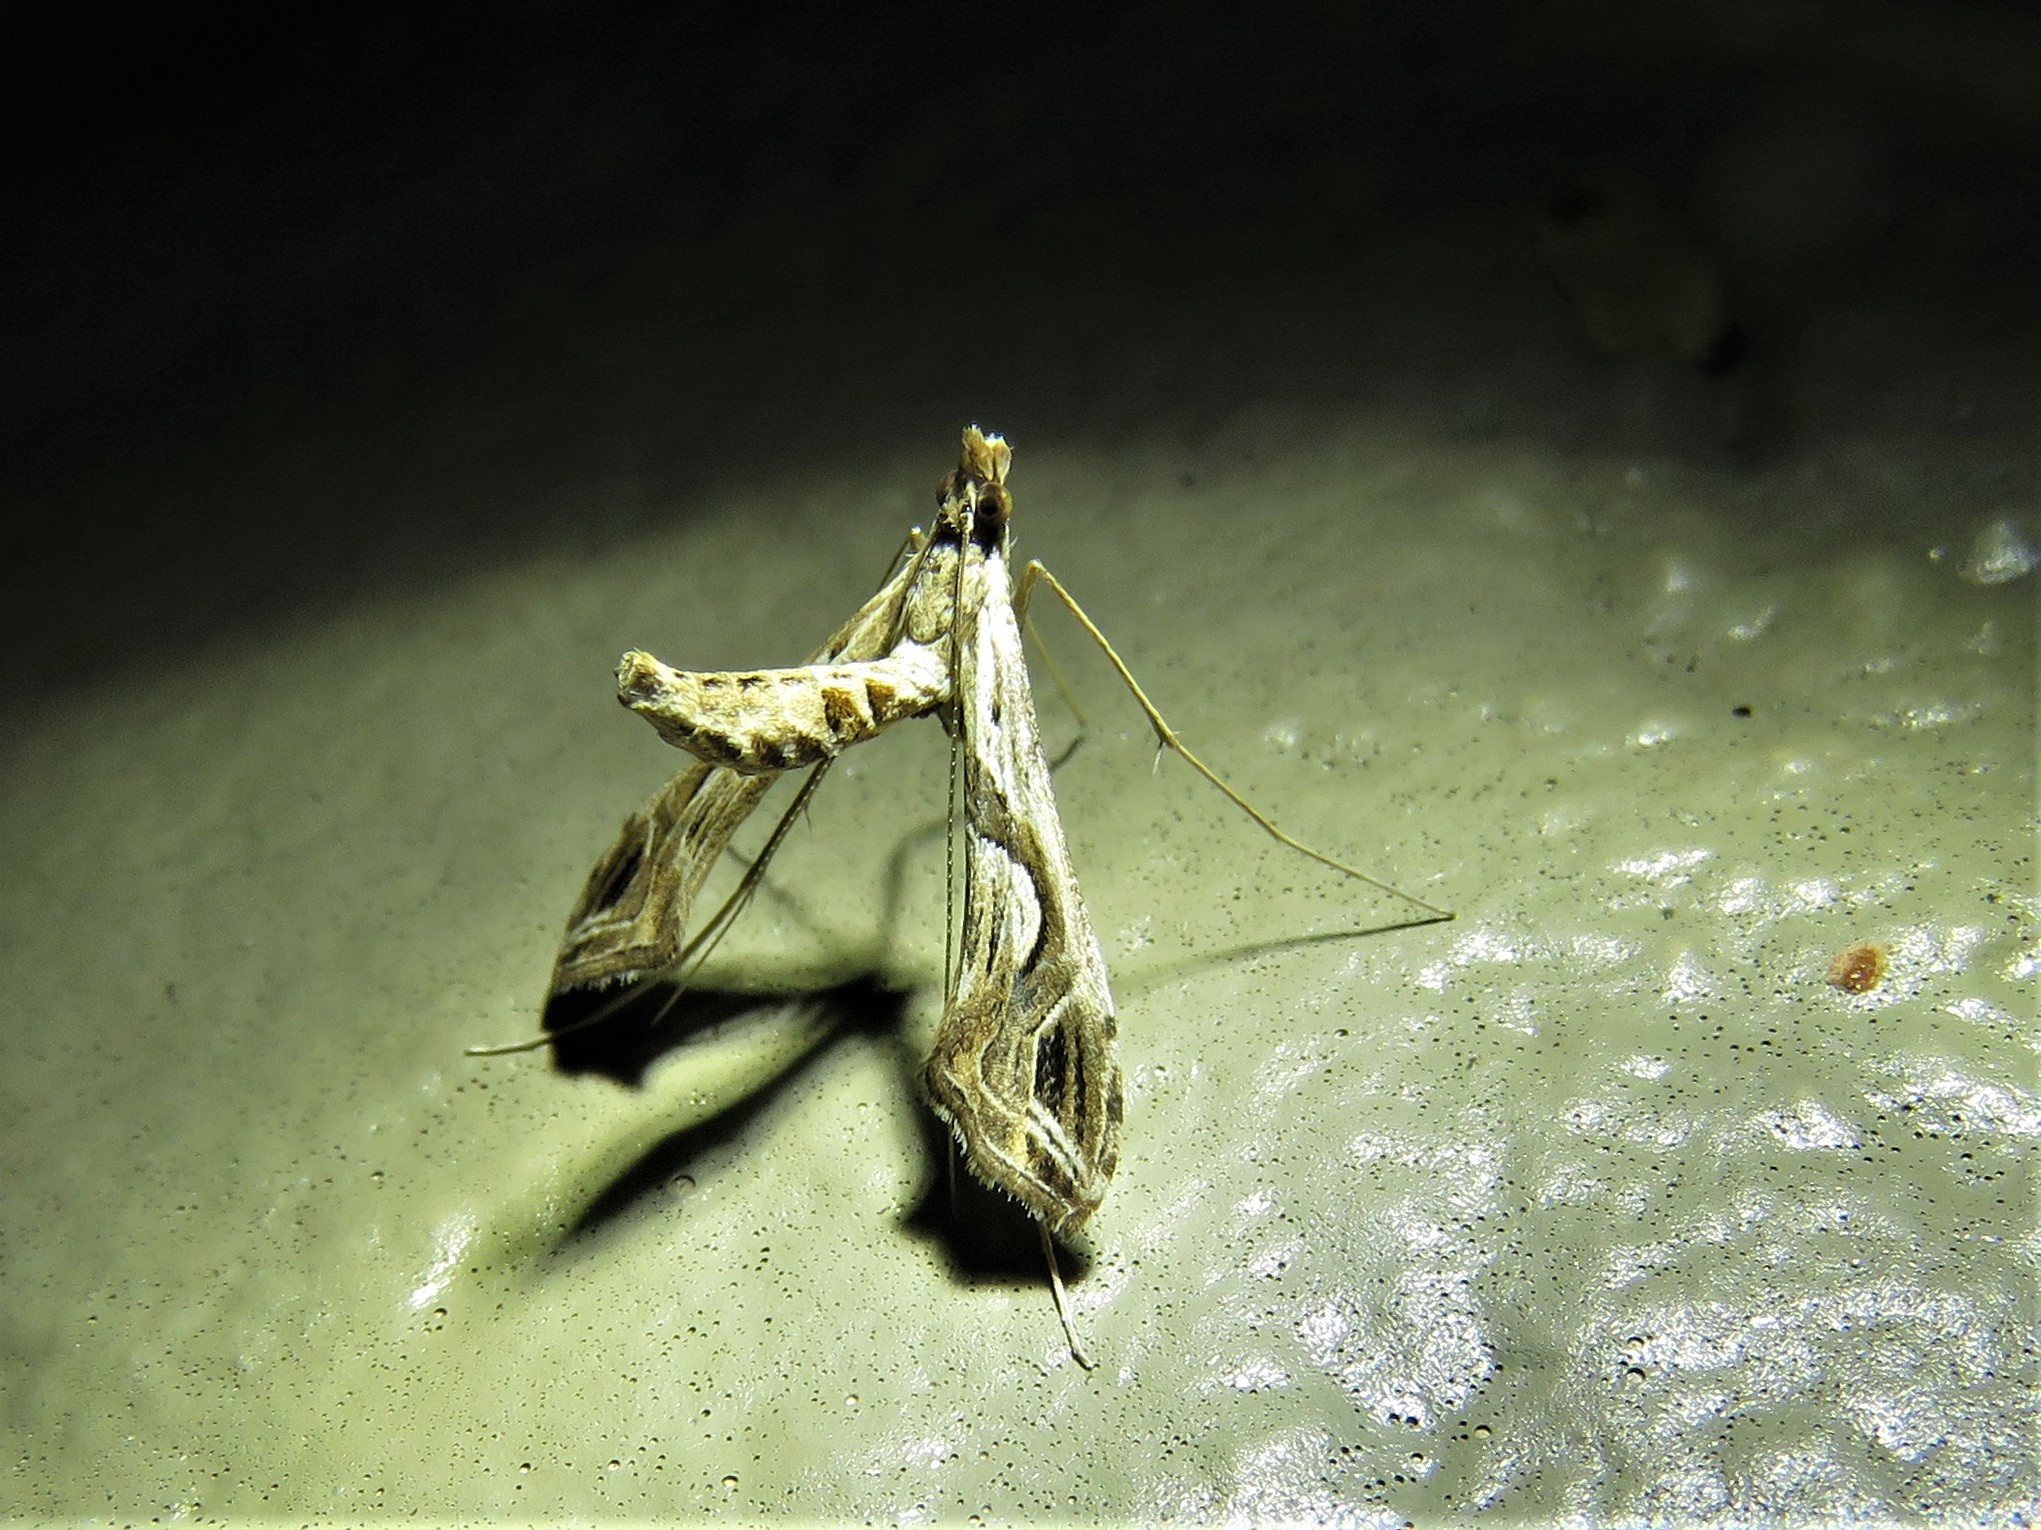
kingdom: Animalia
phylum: Arthropoda
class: Insecta
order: Lepidoptera
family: Crambidae
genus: Lineodes
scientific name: Lineodes integra
